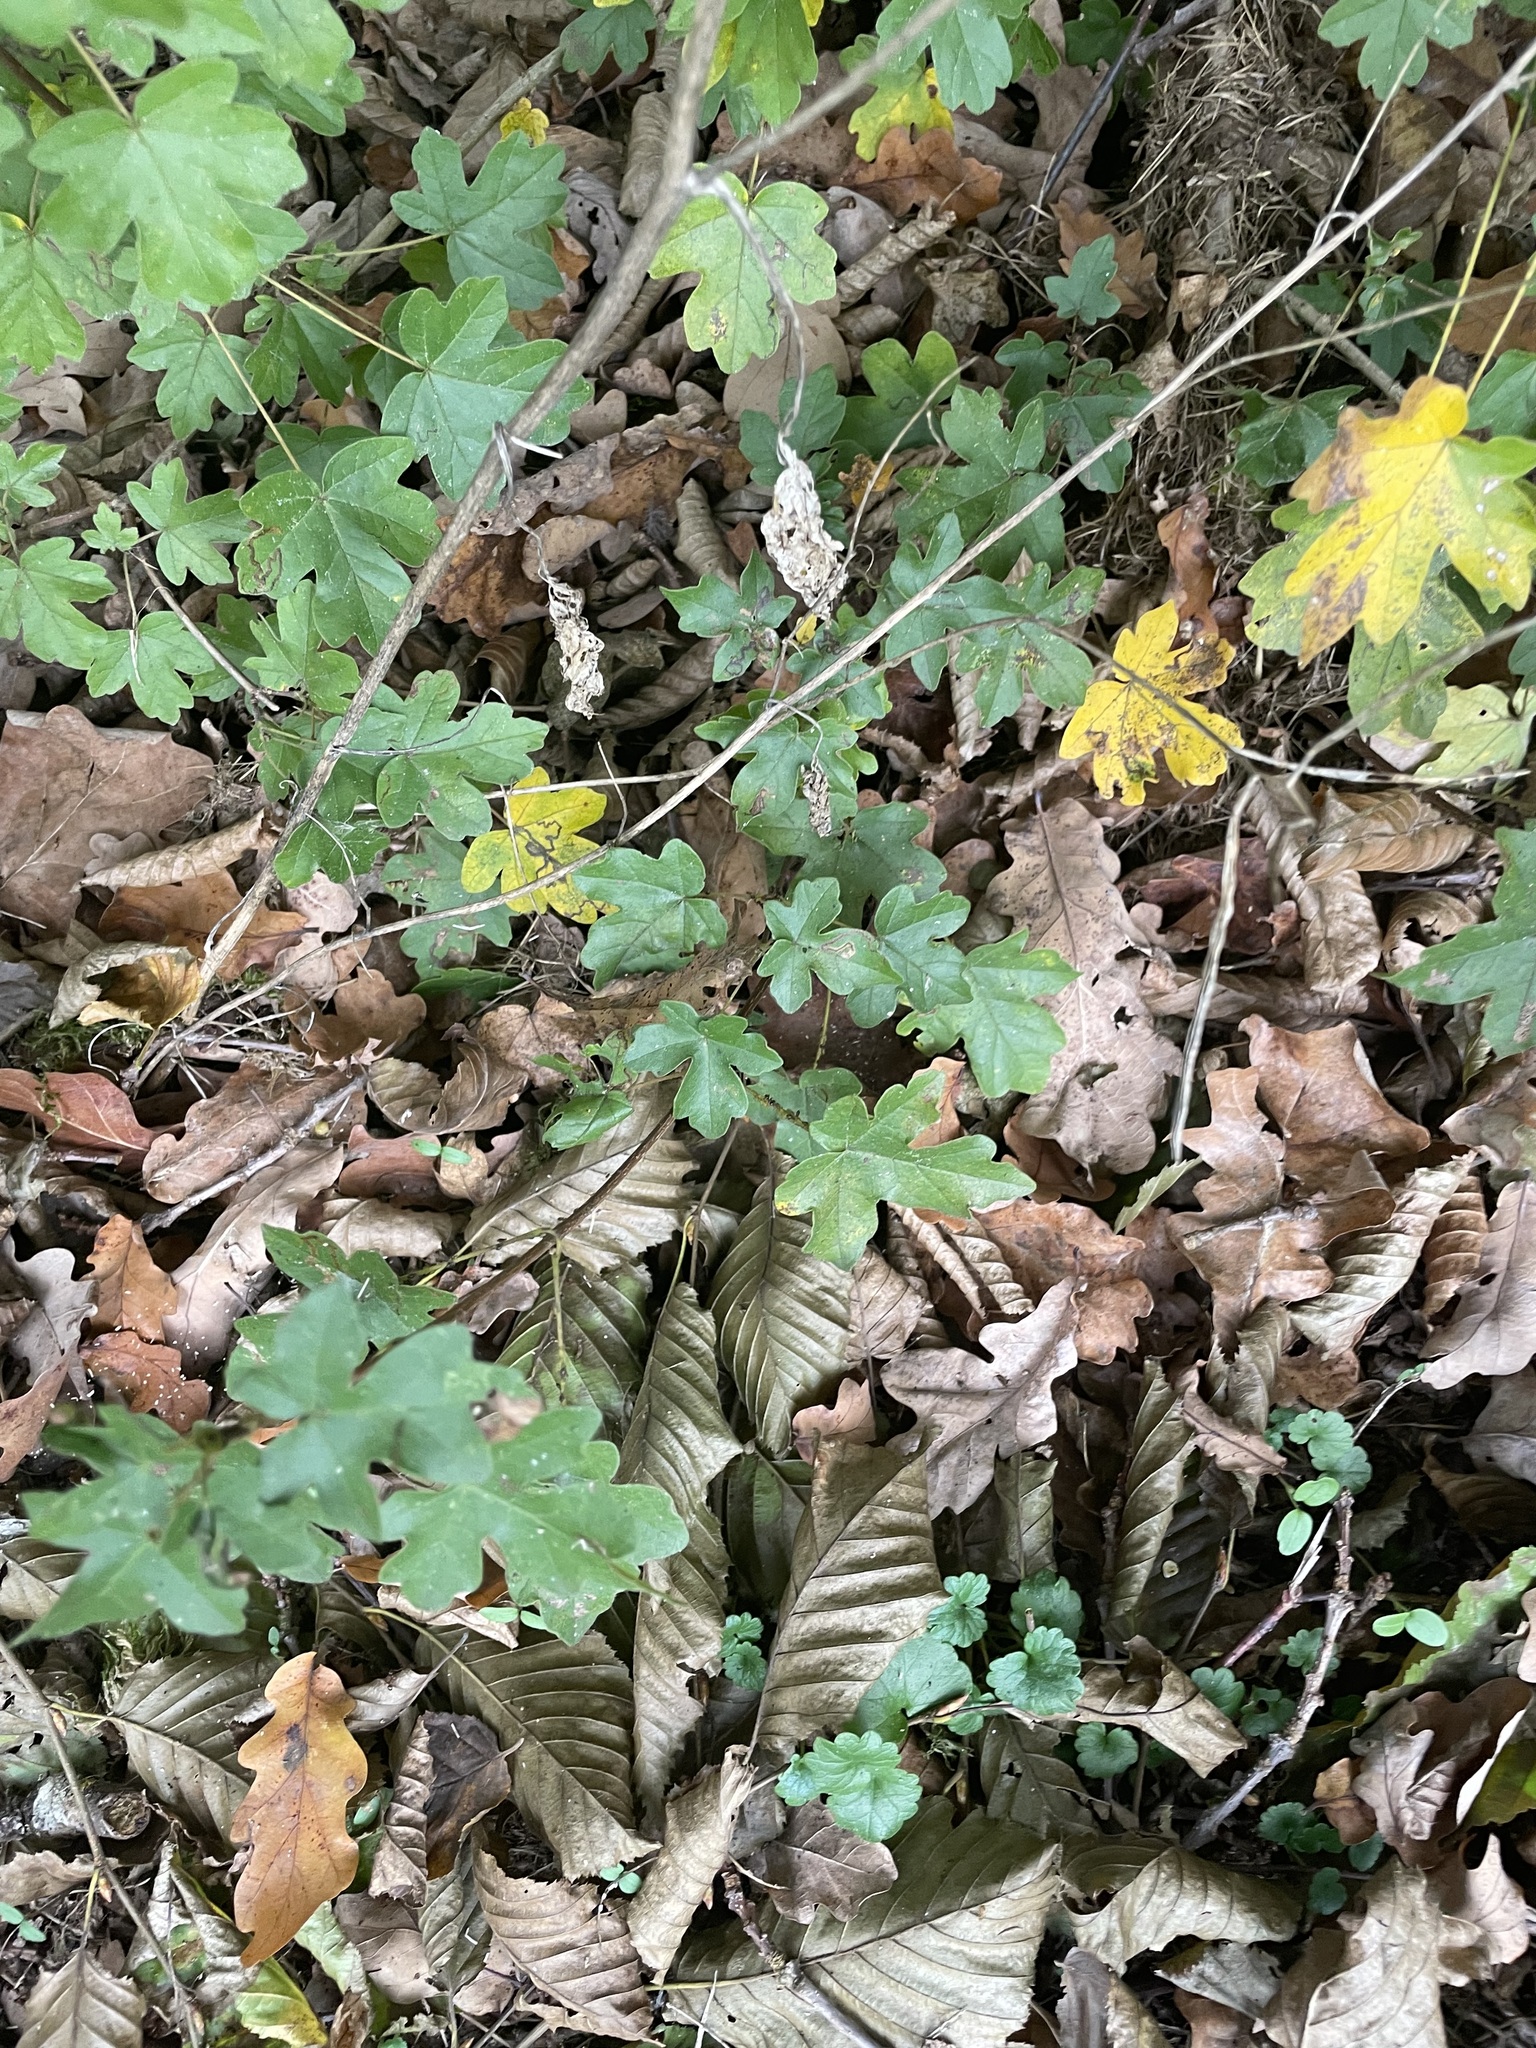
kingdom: Plantae
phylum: Tracheophyta
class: Magnoliopsida
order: Sapindales
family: Sapindaceae
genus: Acer
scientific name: Acer campestre
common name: Field maple
